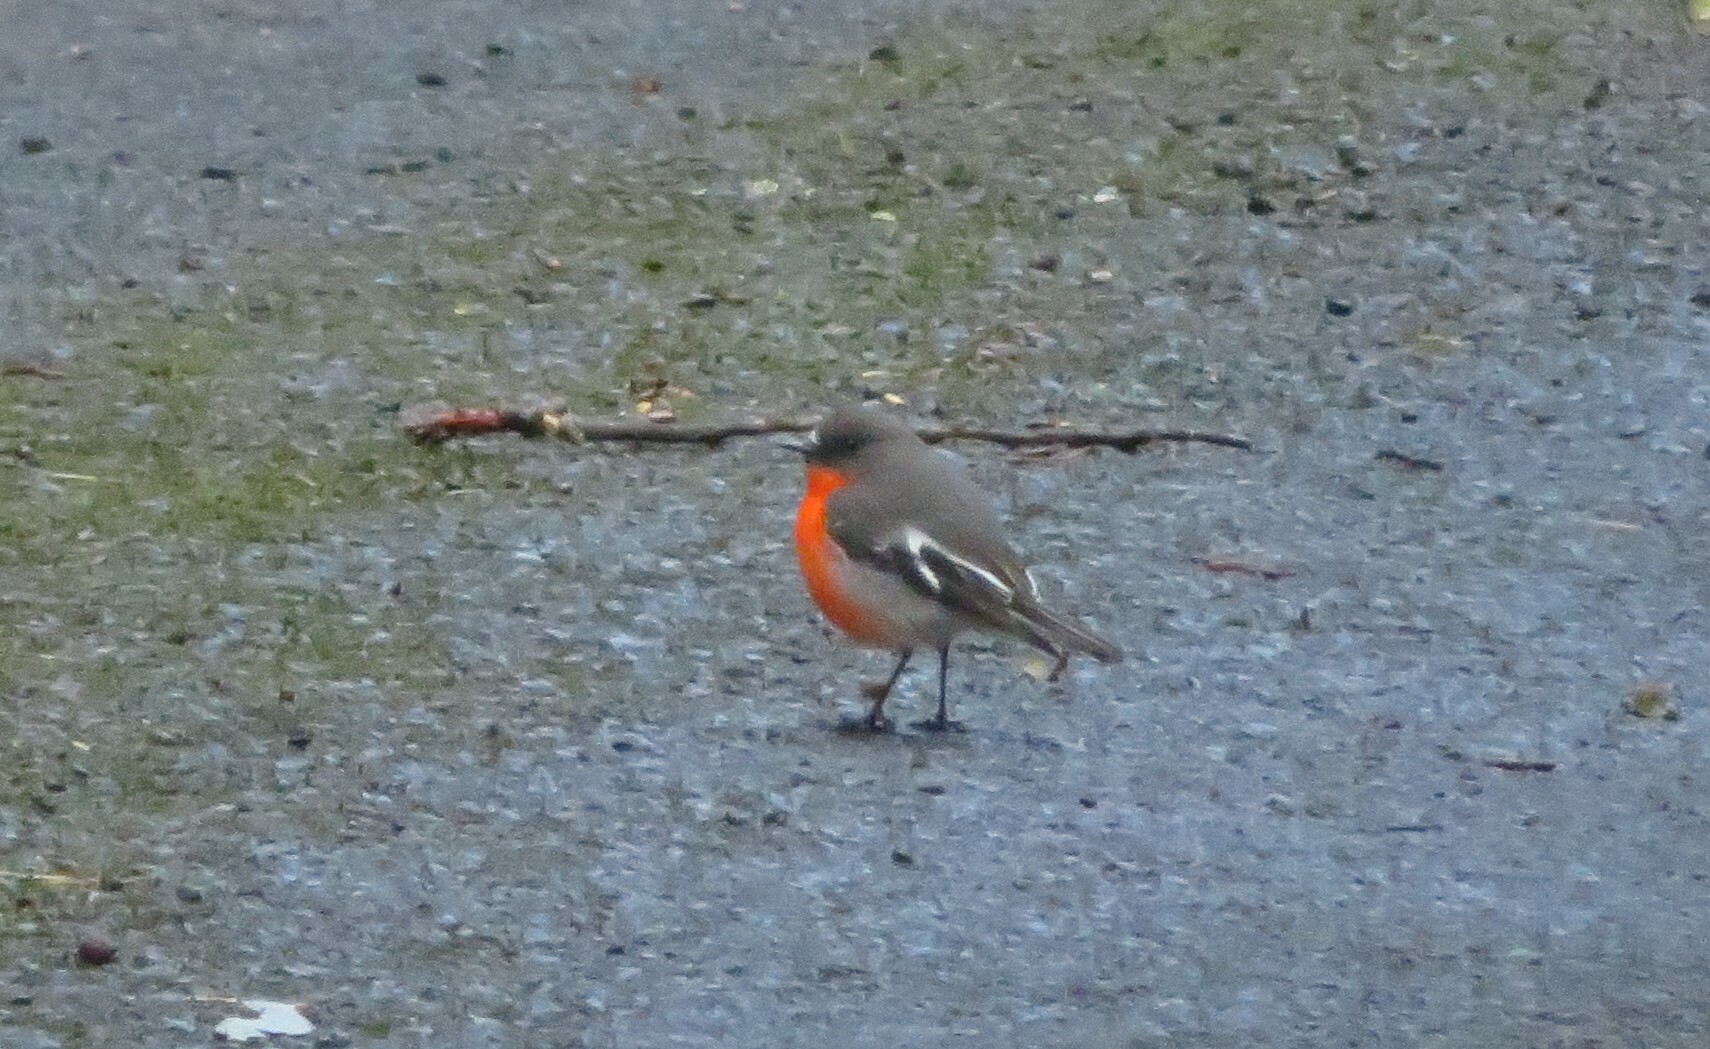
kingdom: Animalia
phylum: Chordata
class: Aves
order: Passeriformes
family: Petroicidae
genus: Petroica
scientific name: Petroica phoenicea
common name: Flame robin
